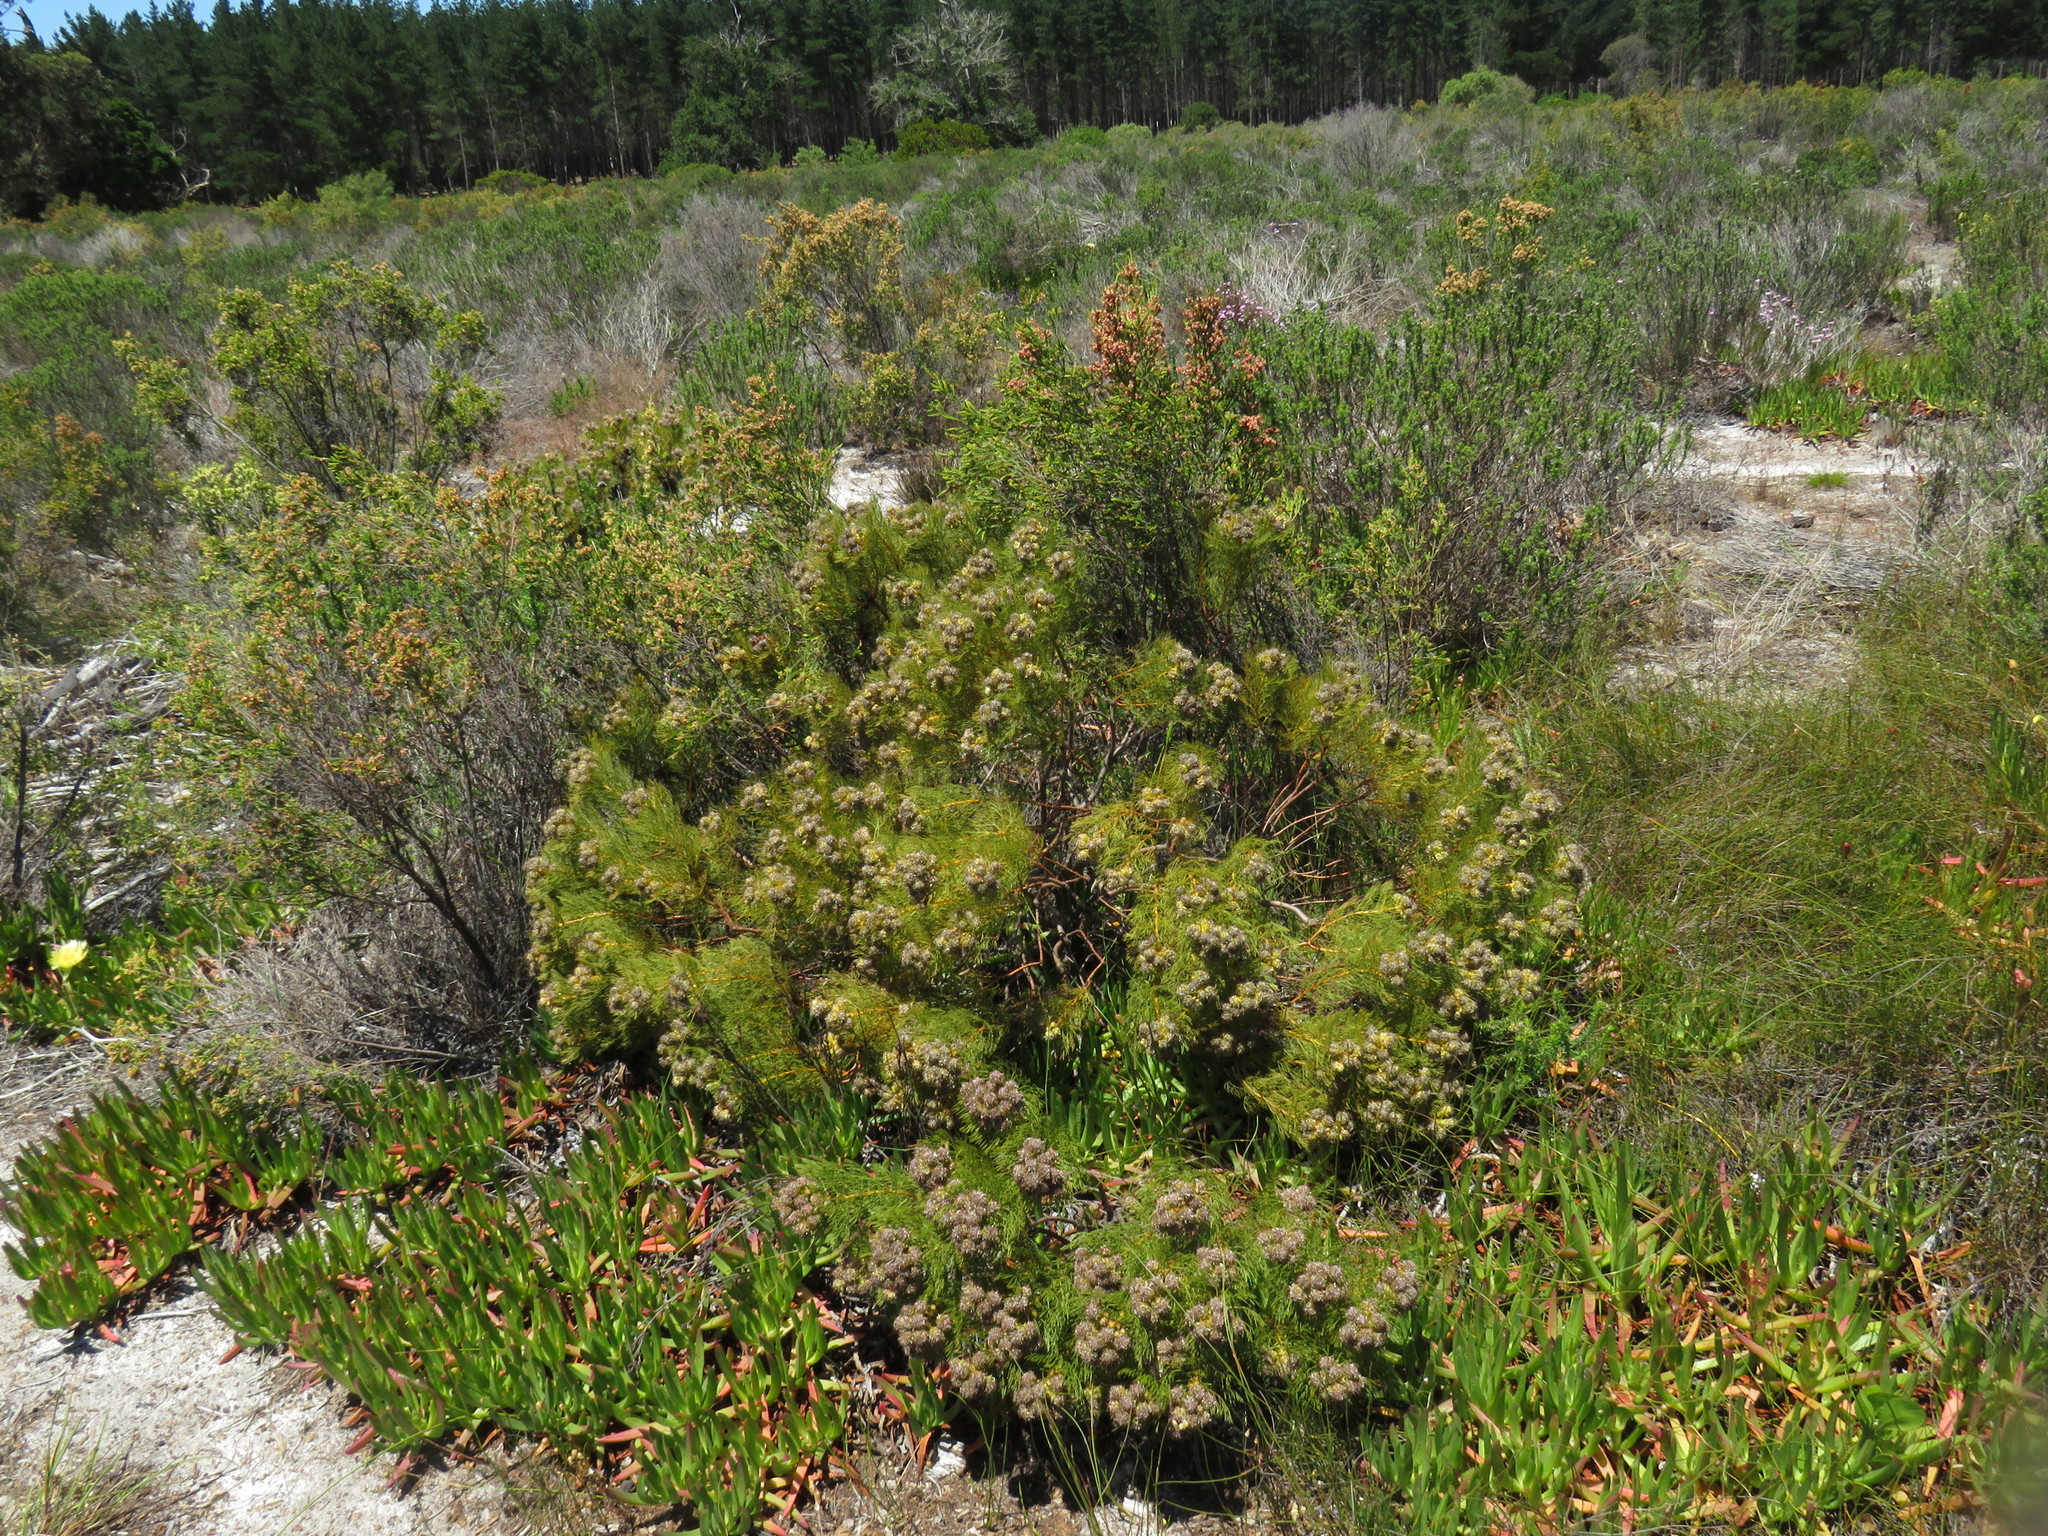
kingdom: Plantae
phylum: Tracheophyta
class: Magnoliopsida
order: Proteales
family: Proteaceae
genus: Serruria
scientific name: Serruria glomerata
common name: Cluster spiderhead
